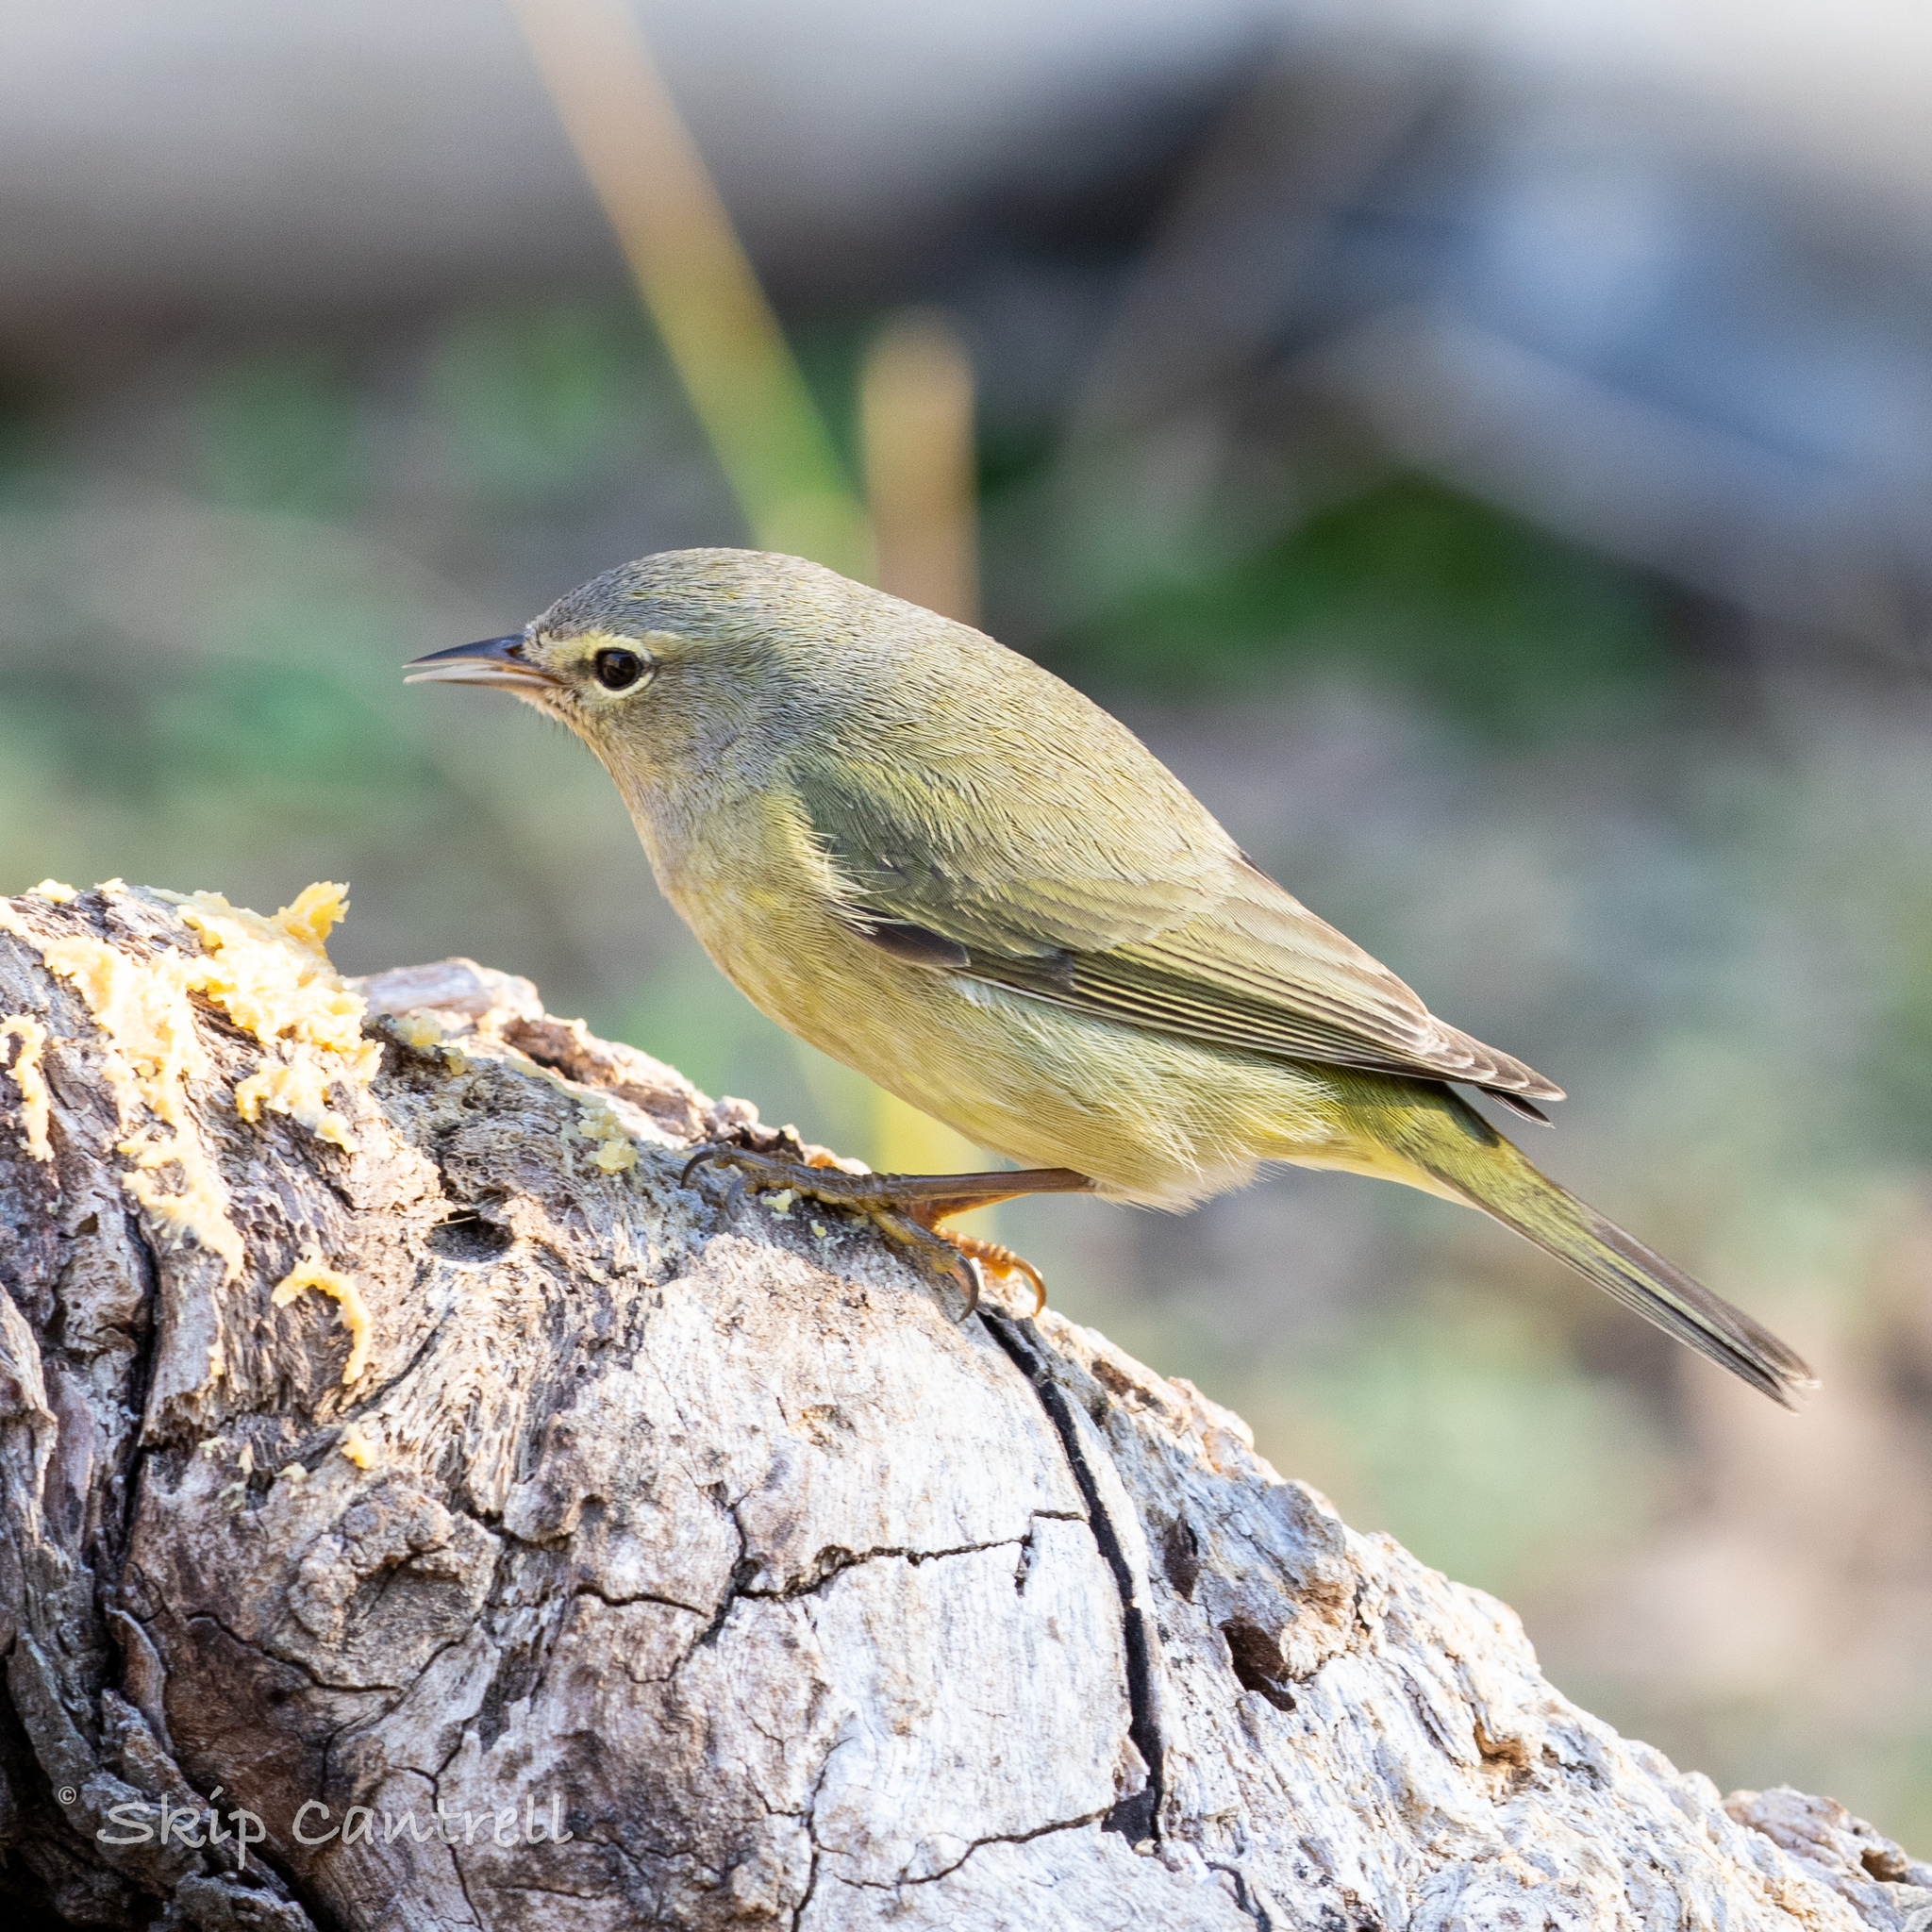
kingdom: Animalia
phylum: Chordata
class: Aves
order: Passeriformes
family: Parulidae
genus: Leiothlypis
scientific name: Leiothlypis celata
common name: Orange-crowned warbler
